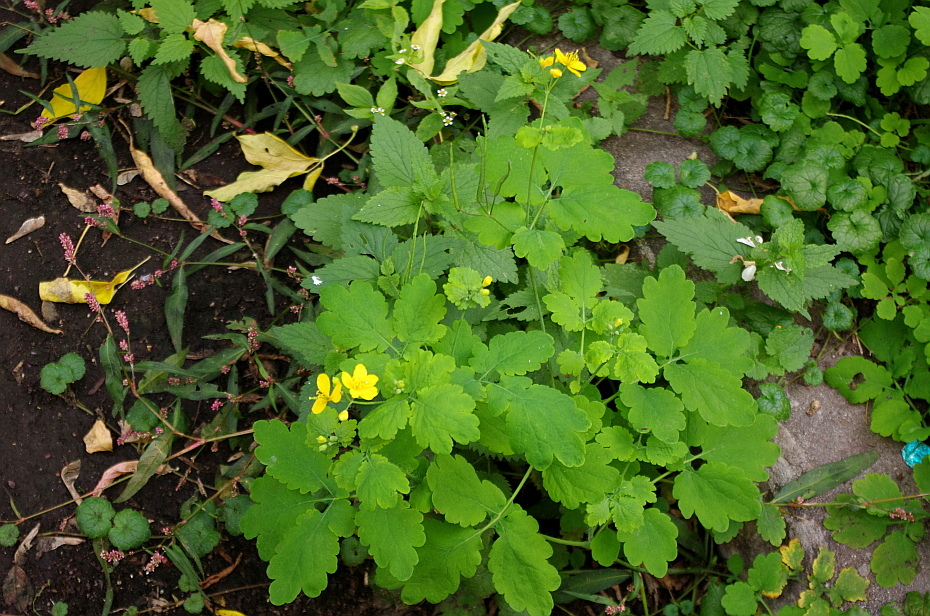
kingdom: Plantae
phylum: Tracheophyta
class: Magnoliopsida
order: Ranunculales
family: Papaveraceae
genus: Chelidonium
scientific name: Chelidonium majus
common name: Greater celandine
